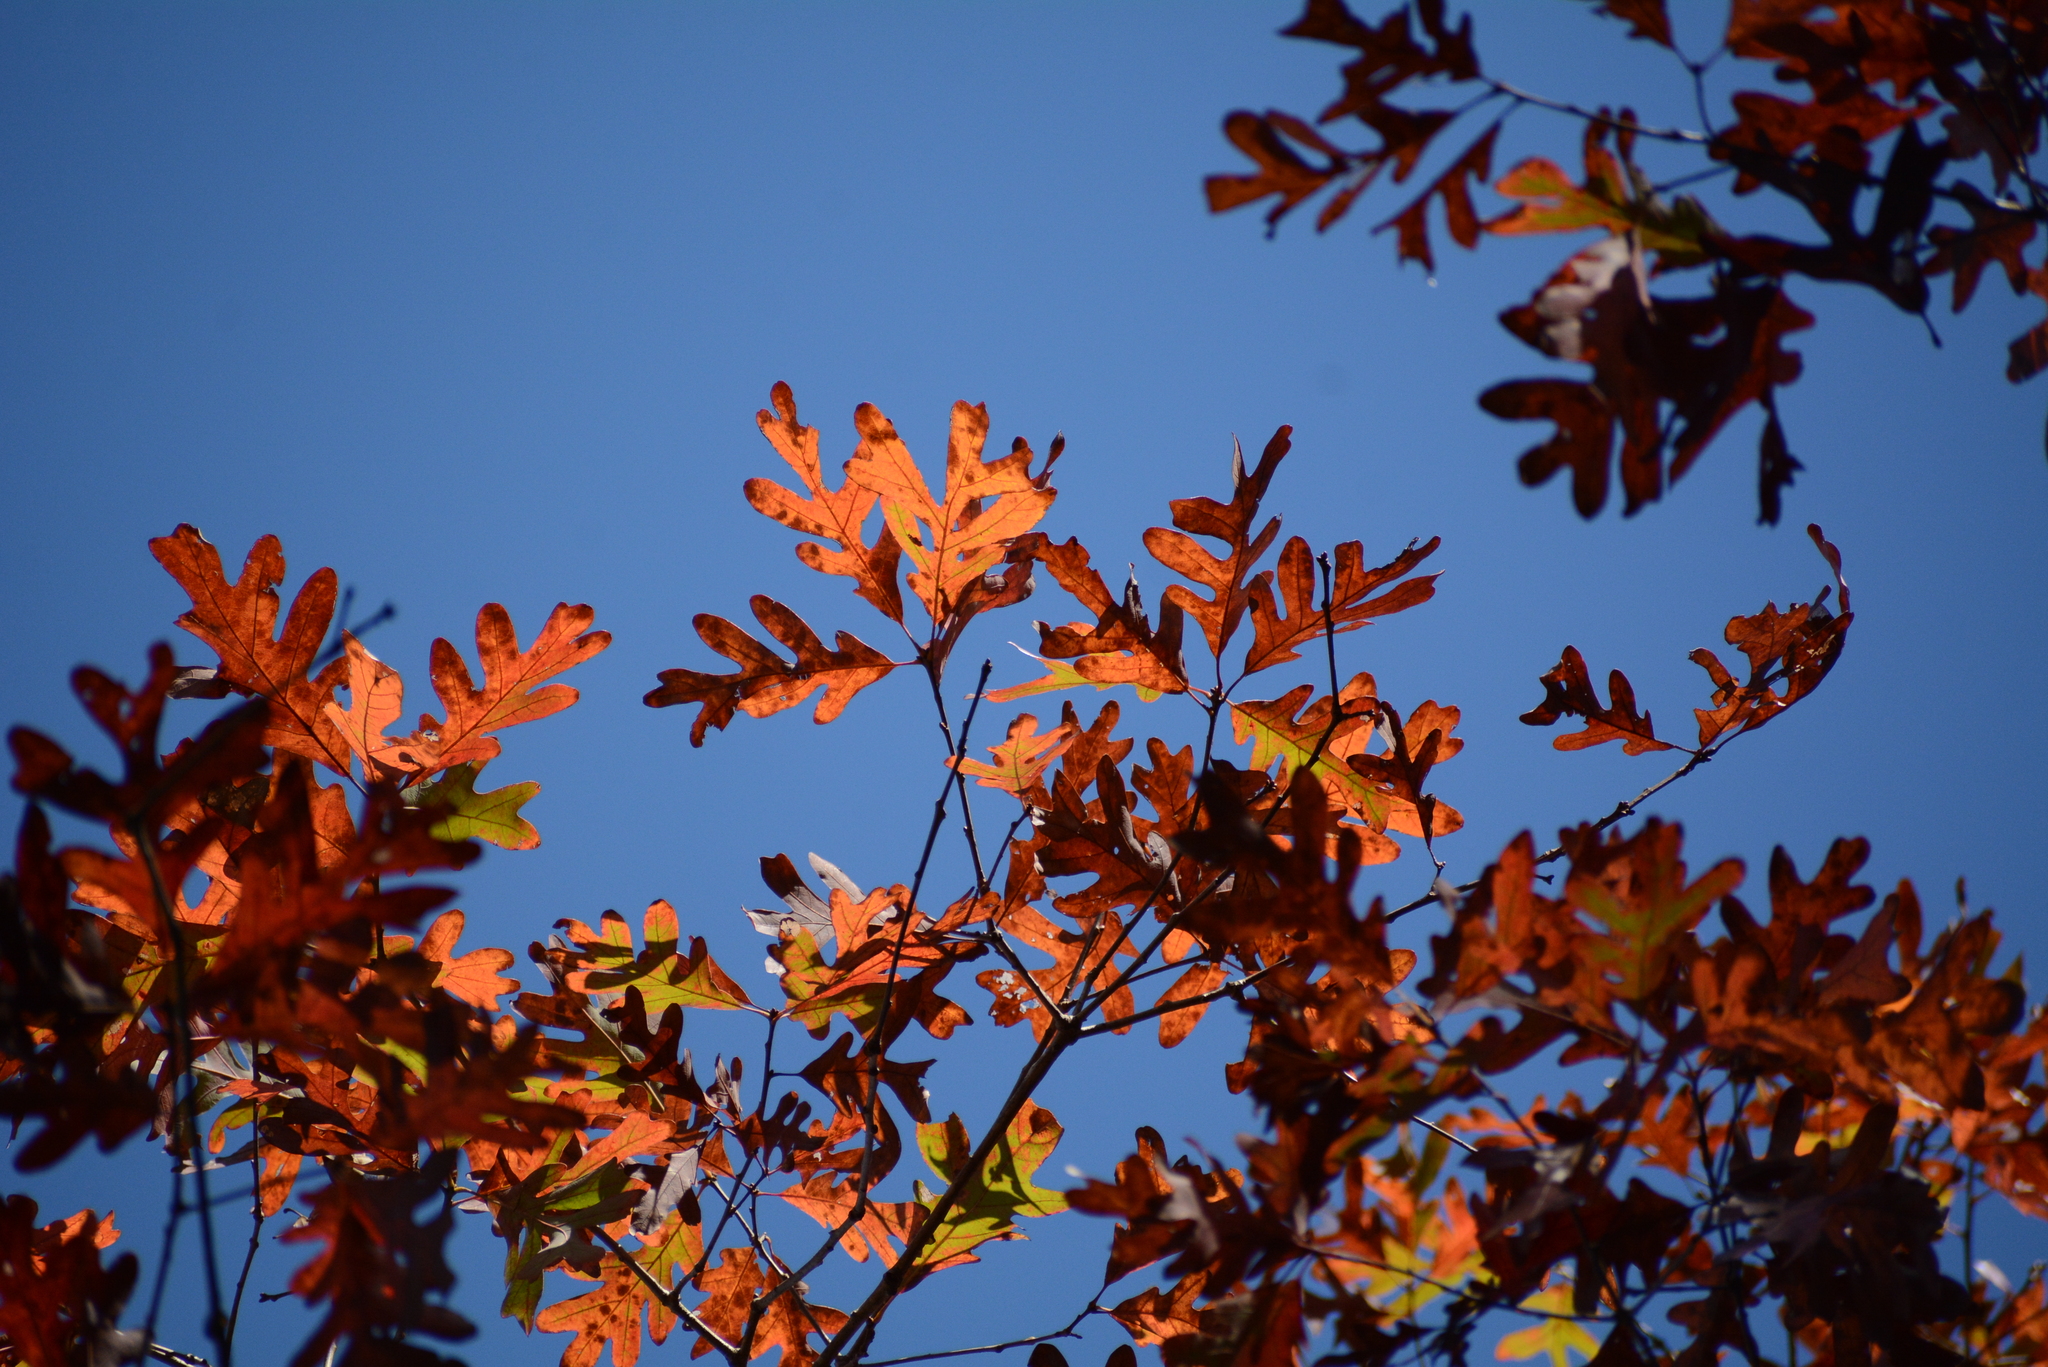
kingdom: Plantae
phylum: Tracheophyta
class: Magnoliopsida
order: Fagales
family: Fagaceae
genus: Quercus
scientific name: Quercus alba
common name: White oak
